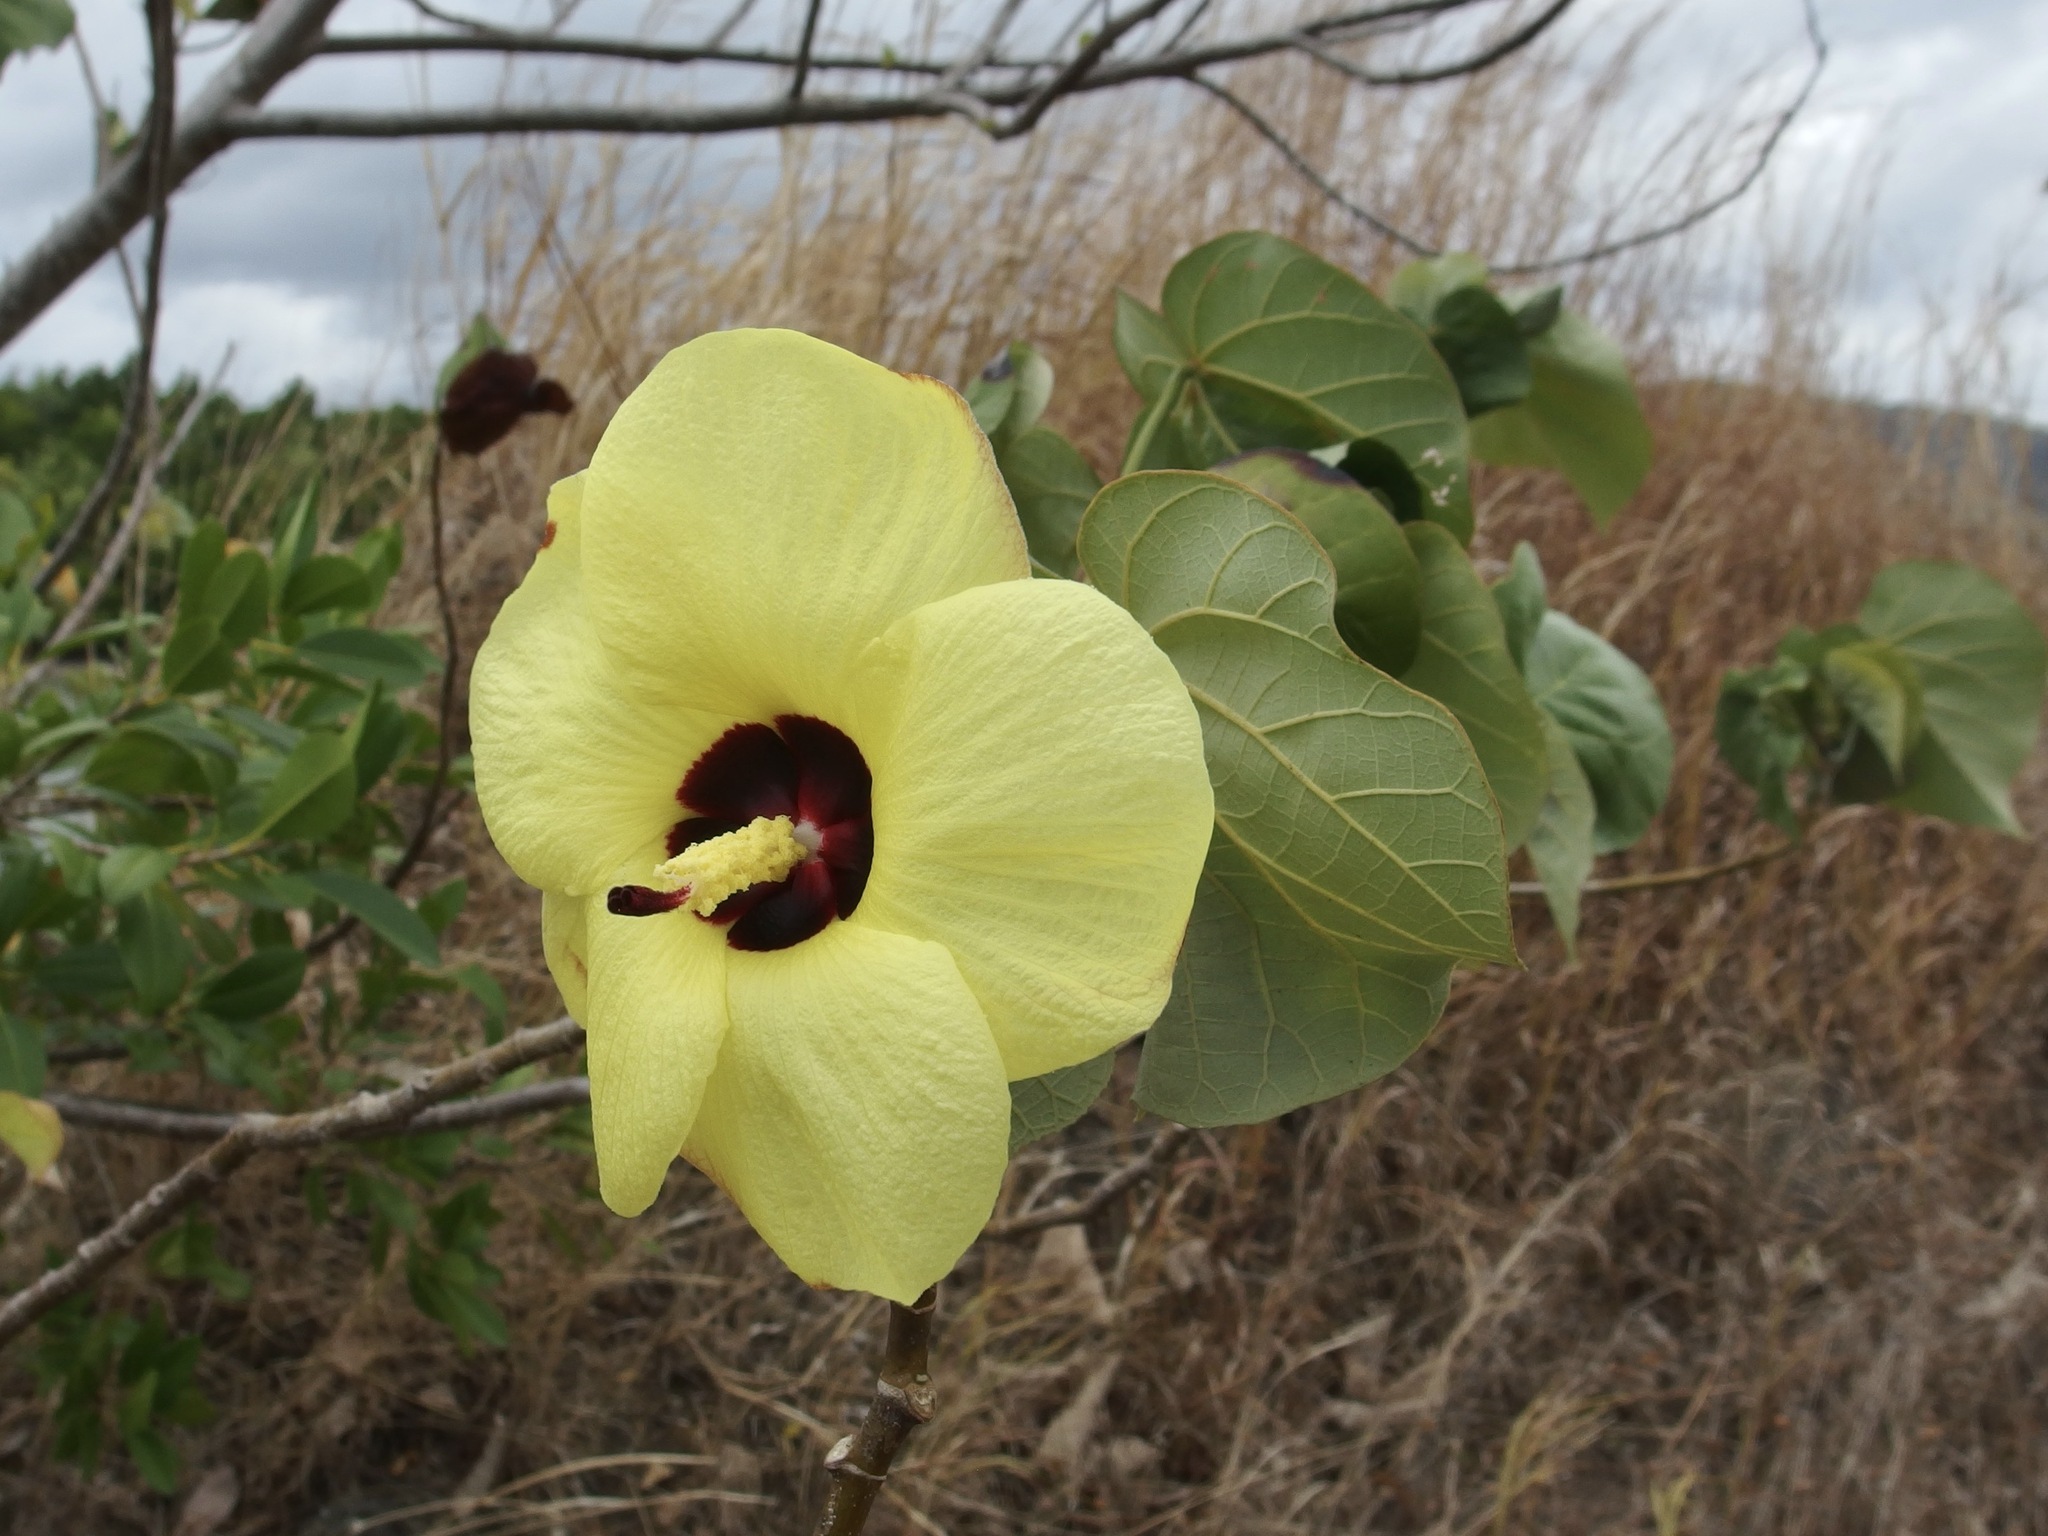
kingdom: Plantae
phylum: Tracheophyta
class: Magnoliopsida
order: Malvales
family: Malvaceae
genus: Talipariti
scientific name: Talipariti tiliaceum
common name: Sea hibiscus
